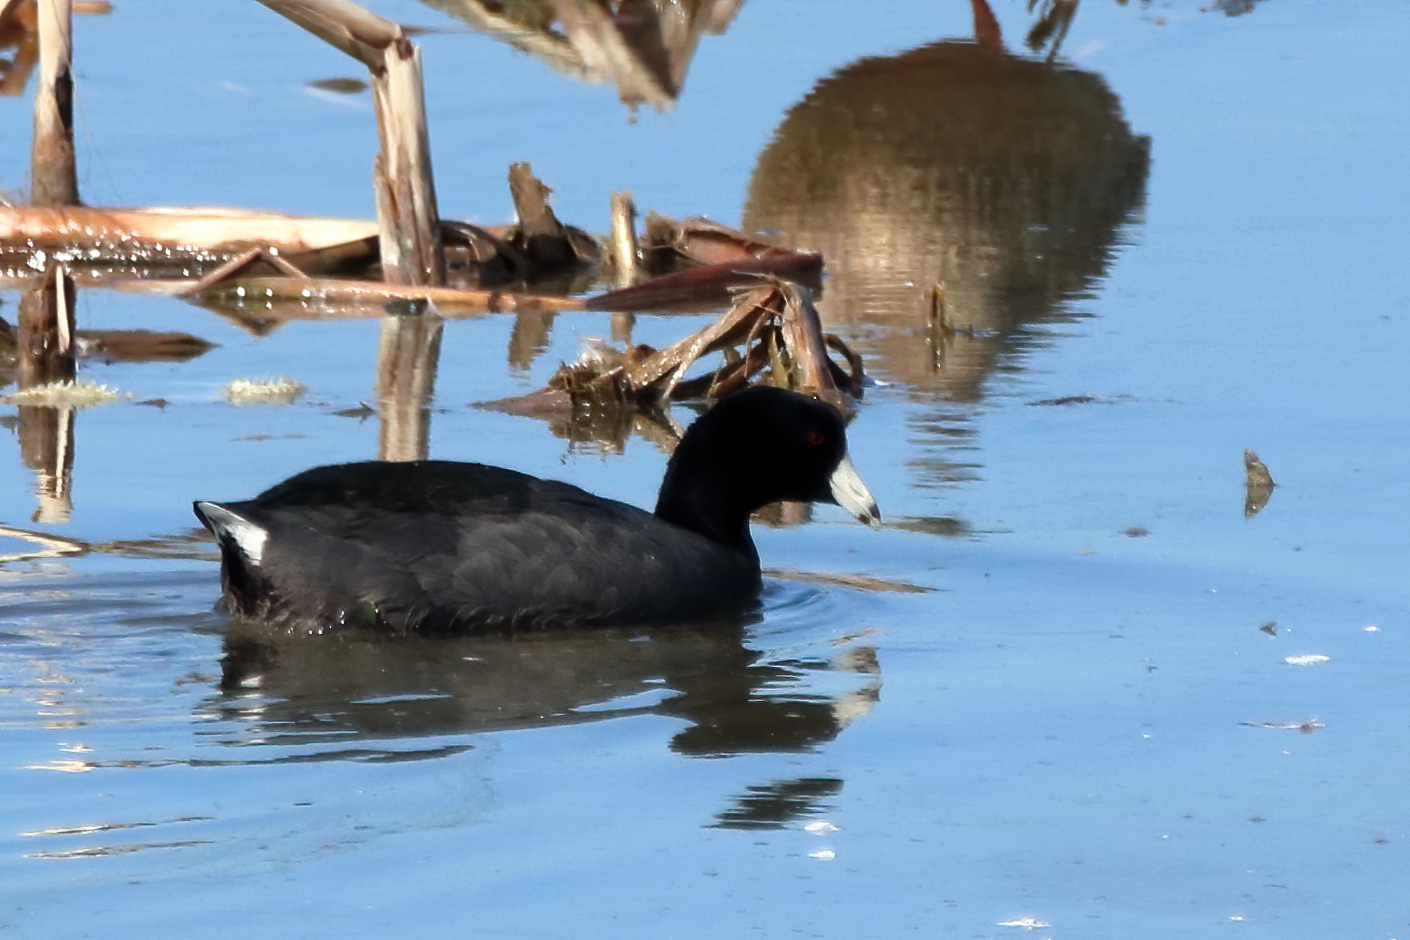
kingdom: Animalia
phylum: Chordata
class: Aves
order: Gruiformes
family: Rallidae
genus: Fulica
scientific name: Fulica americana
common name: American coot
